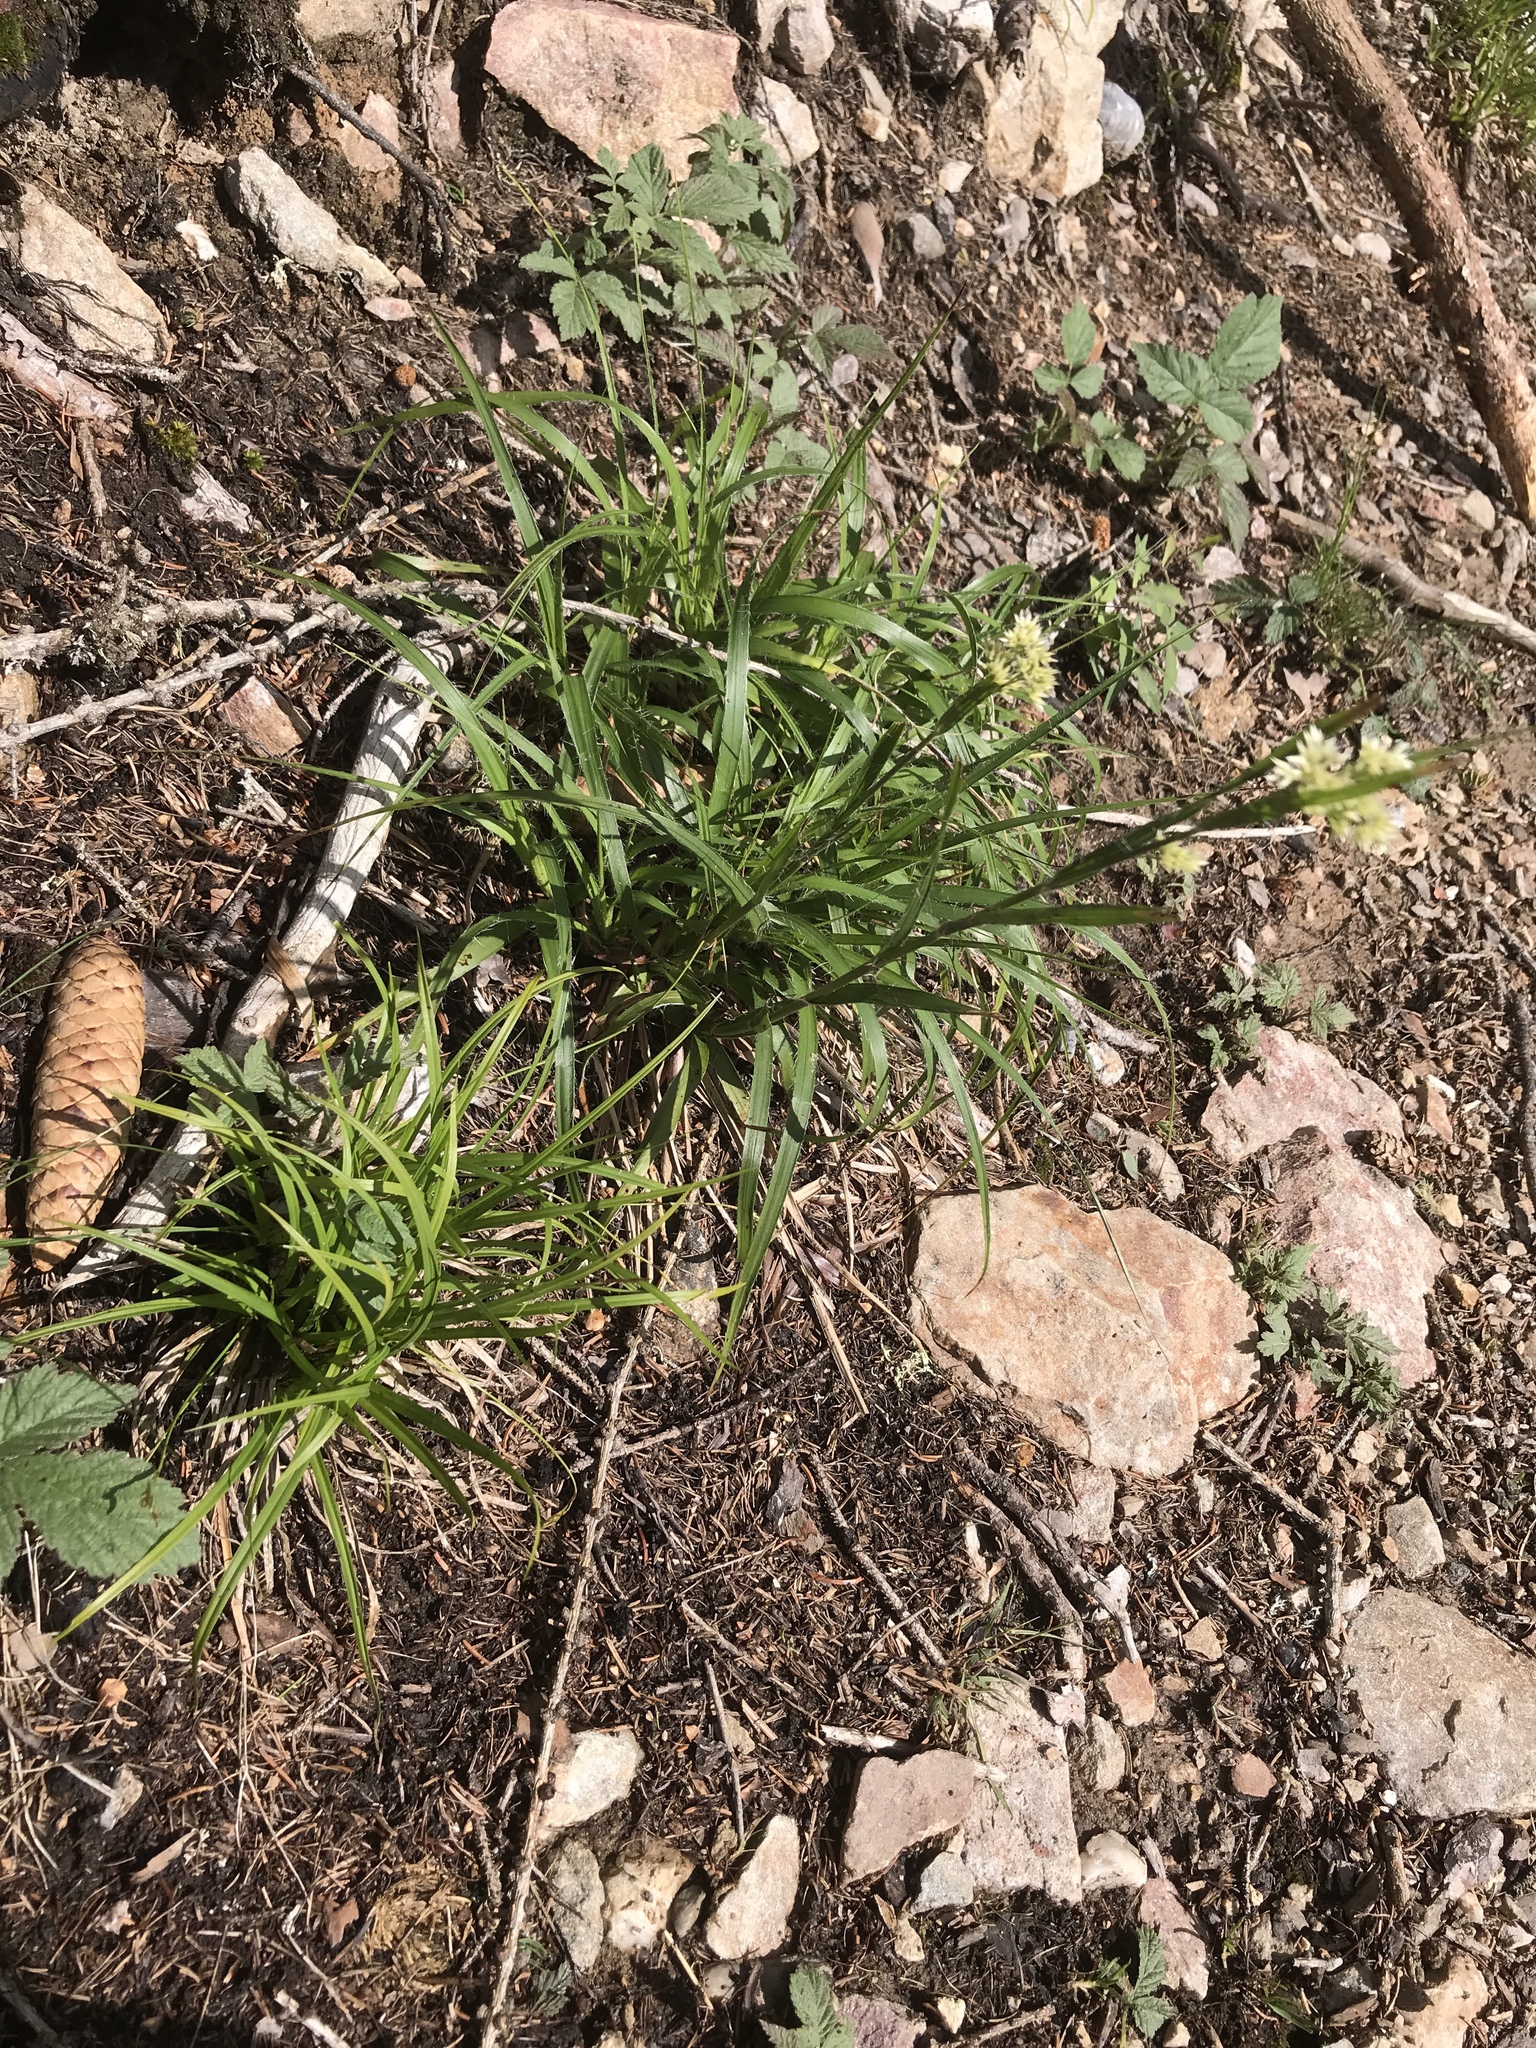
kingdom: Plantae
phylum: Tracheophyta
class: Liliopsida
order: Poales
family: Juncaceae
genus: Luzula
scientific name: Luzula nivea
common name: Snow-white wood-rush
